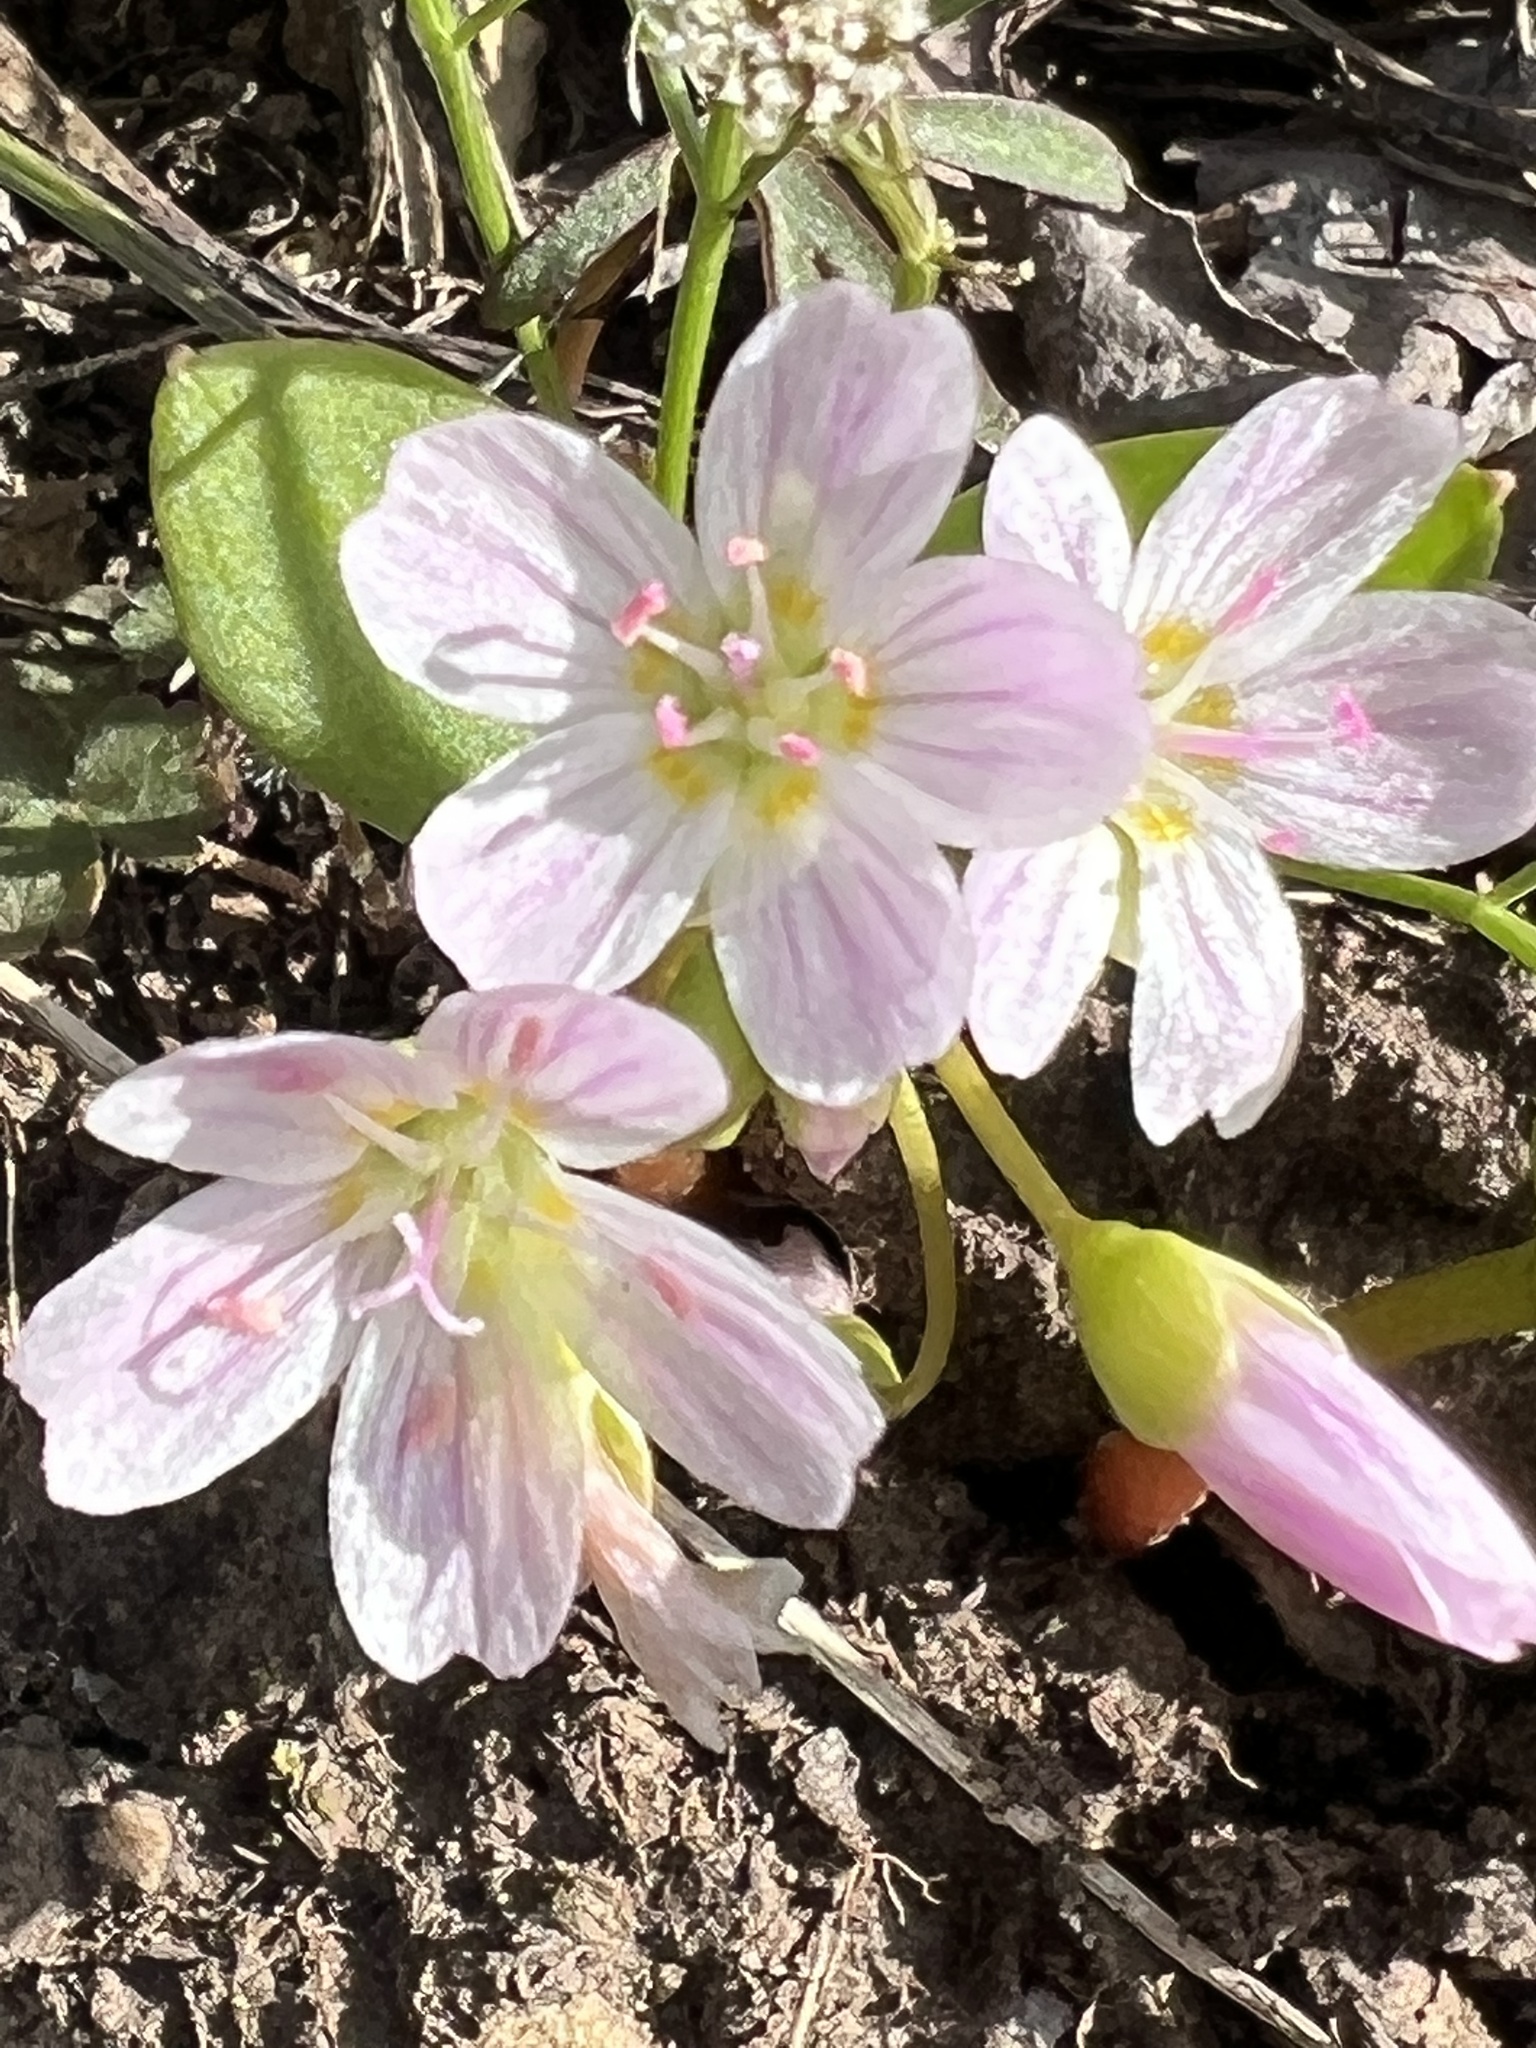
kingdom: Plantae
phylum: Tracheophyta
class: Magnoliopsida
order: Caryophyllales
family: Montiaceae
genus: Claytonia
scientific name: Claytonia lanceolata
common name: Western spring-beauty
